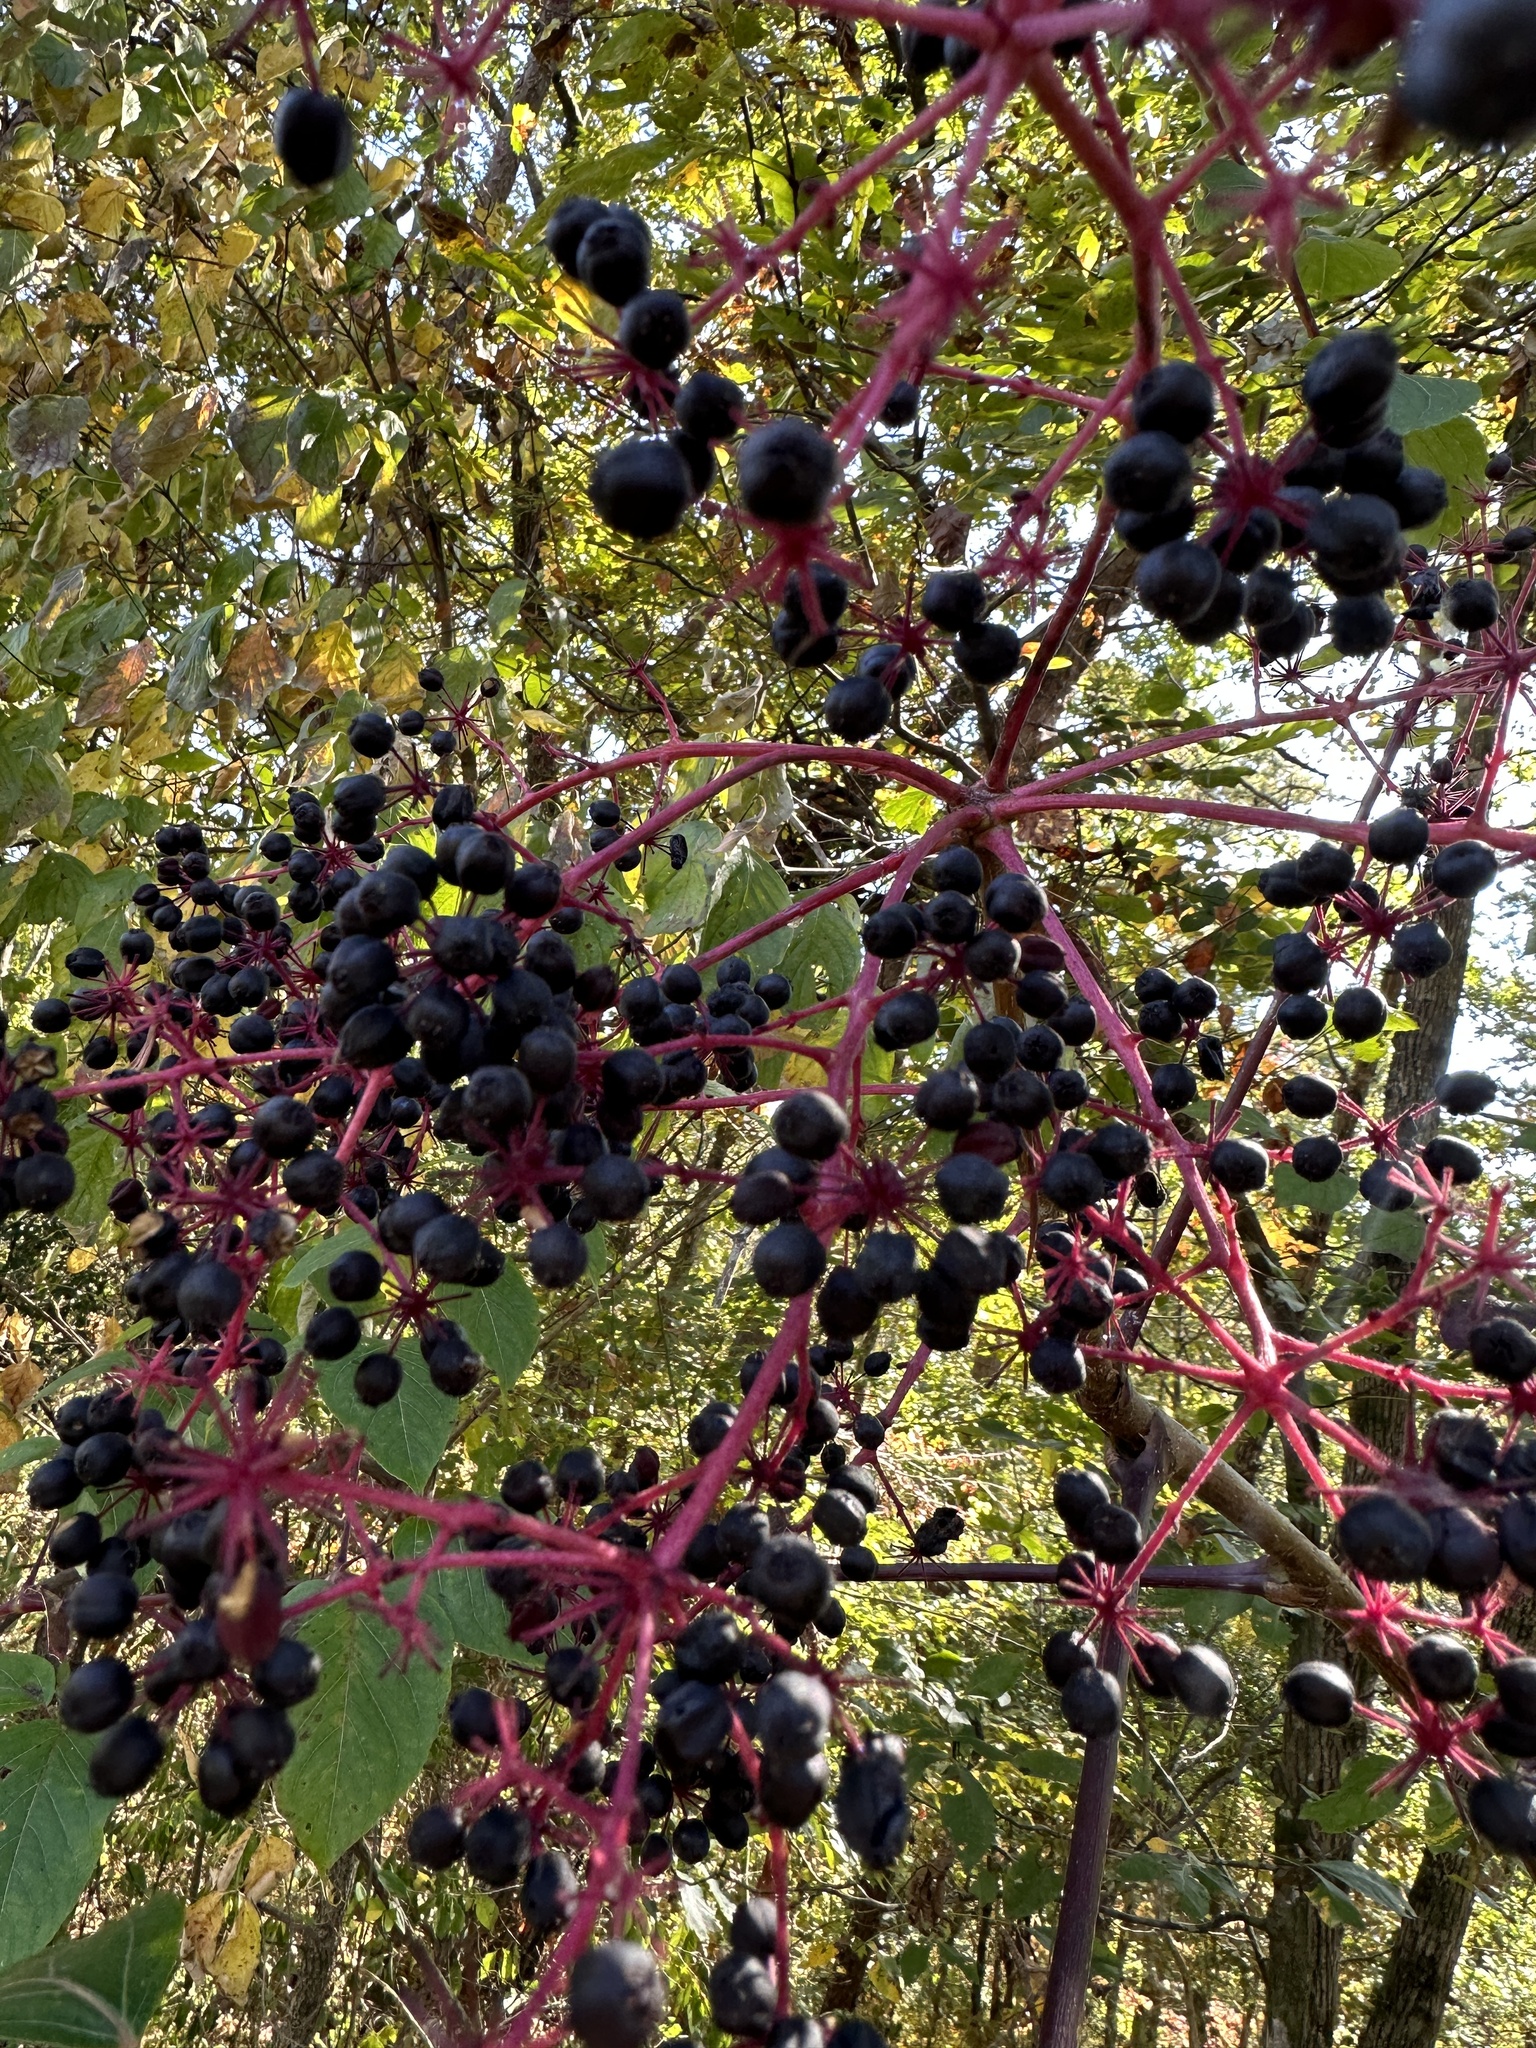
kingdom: Plantae
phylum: Tracheophyta
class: Magnoliopsida
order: Apiales
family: Araliaceae
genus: Aralia
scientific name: Aralia spinosa
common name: Hercules'-club
